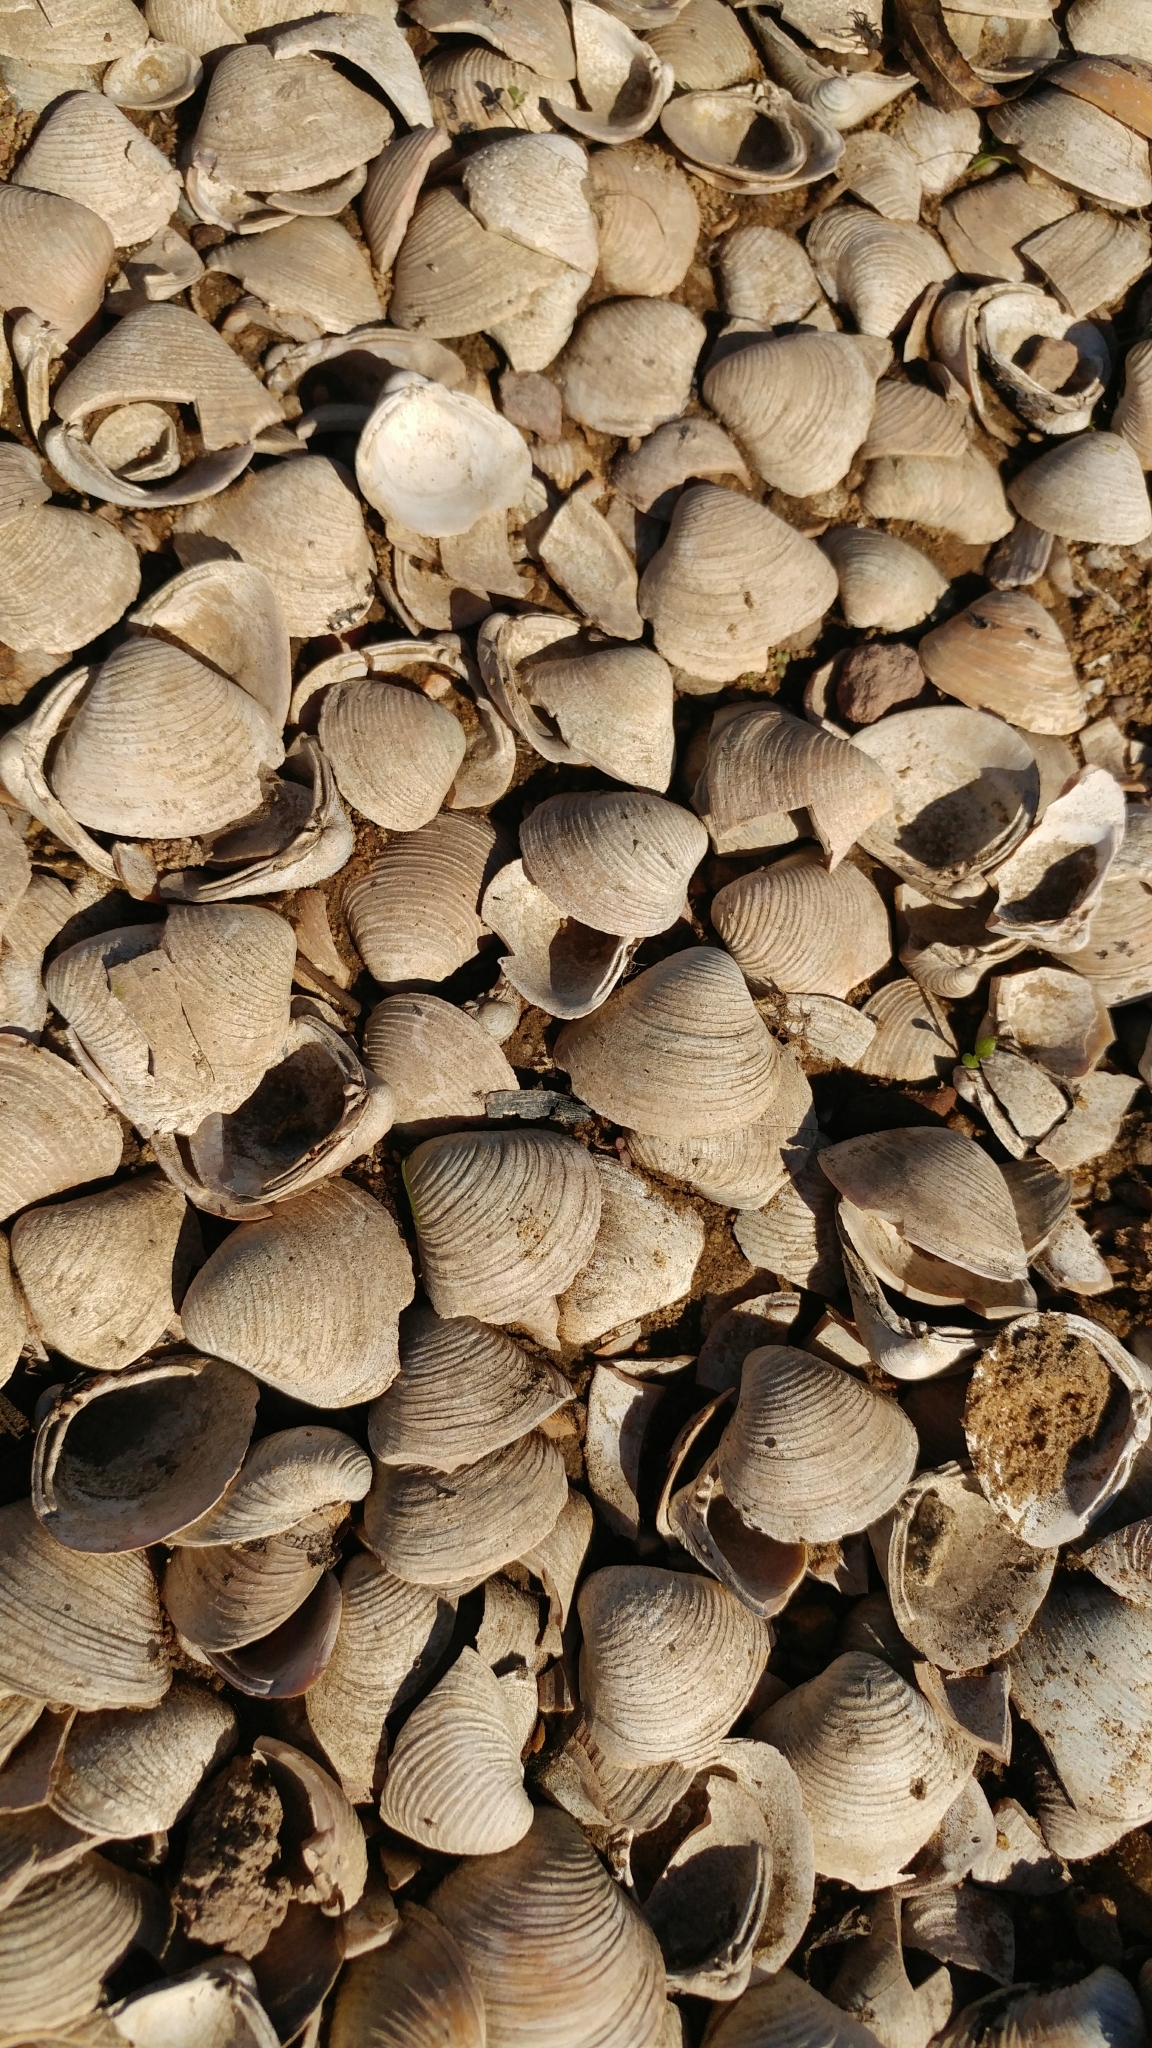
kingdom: Animalia
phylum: Mollusca
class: Bivalvia
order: Venerida
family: Cyrenidae
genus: Corbicula
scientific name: Corbicula fluminea
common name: Asian clam
